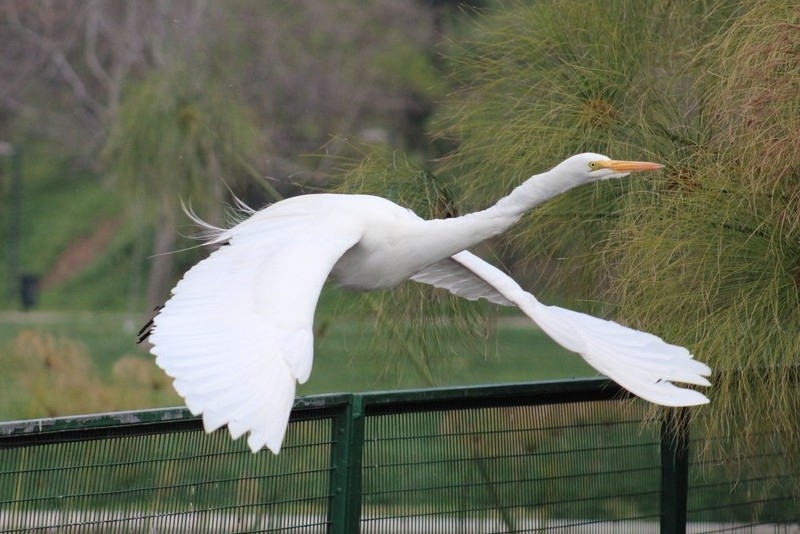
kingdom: Animalia
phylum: Chordata
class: Aves
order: Pelecaniformes
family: Ardeidae
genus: Ardea
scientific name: Ardea alba
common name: Great egret
